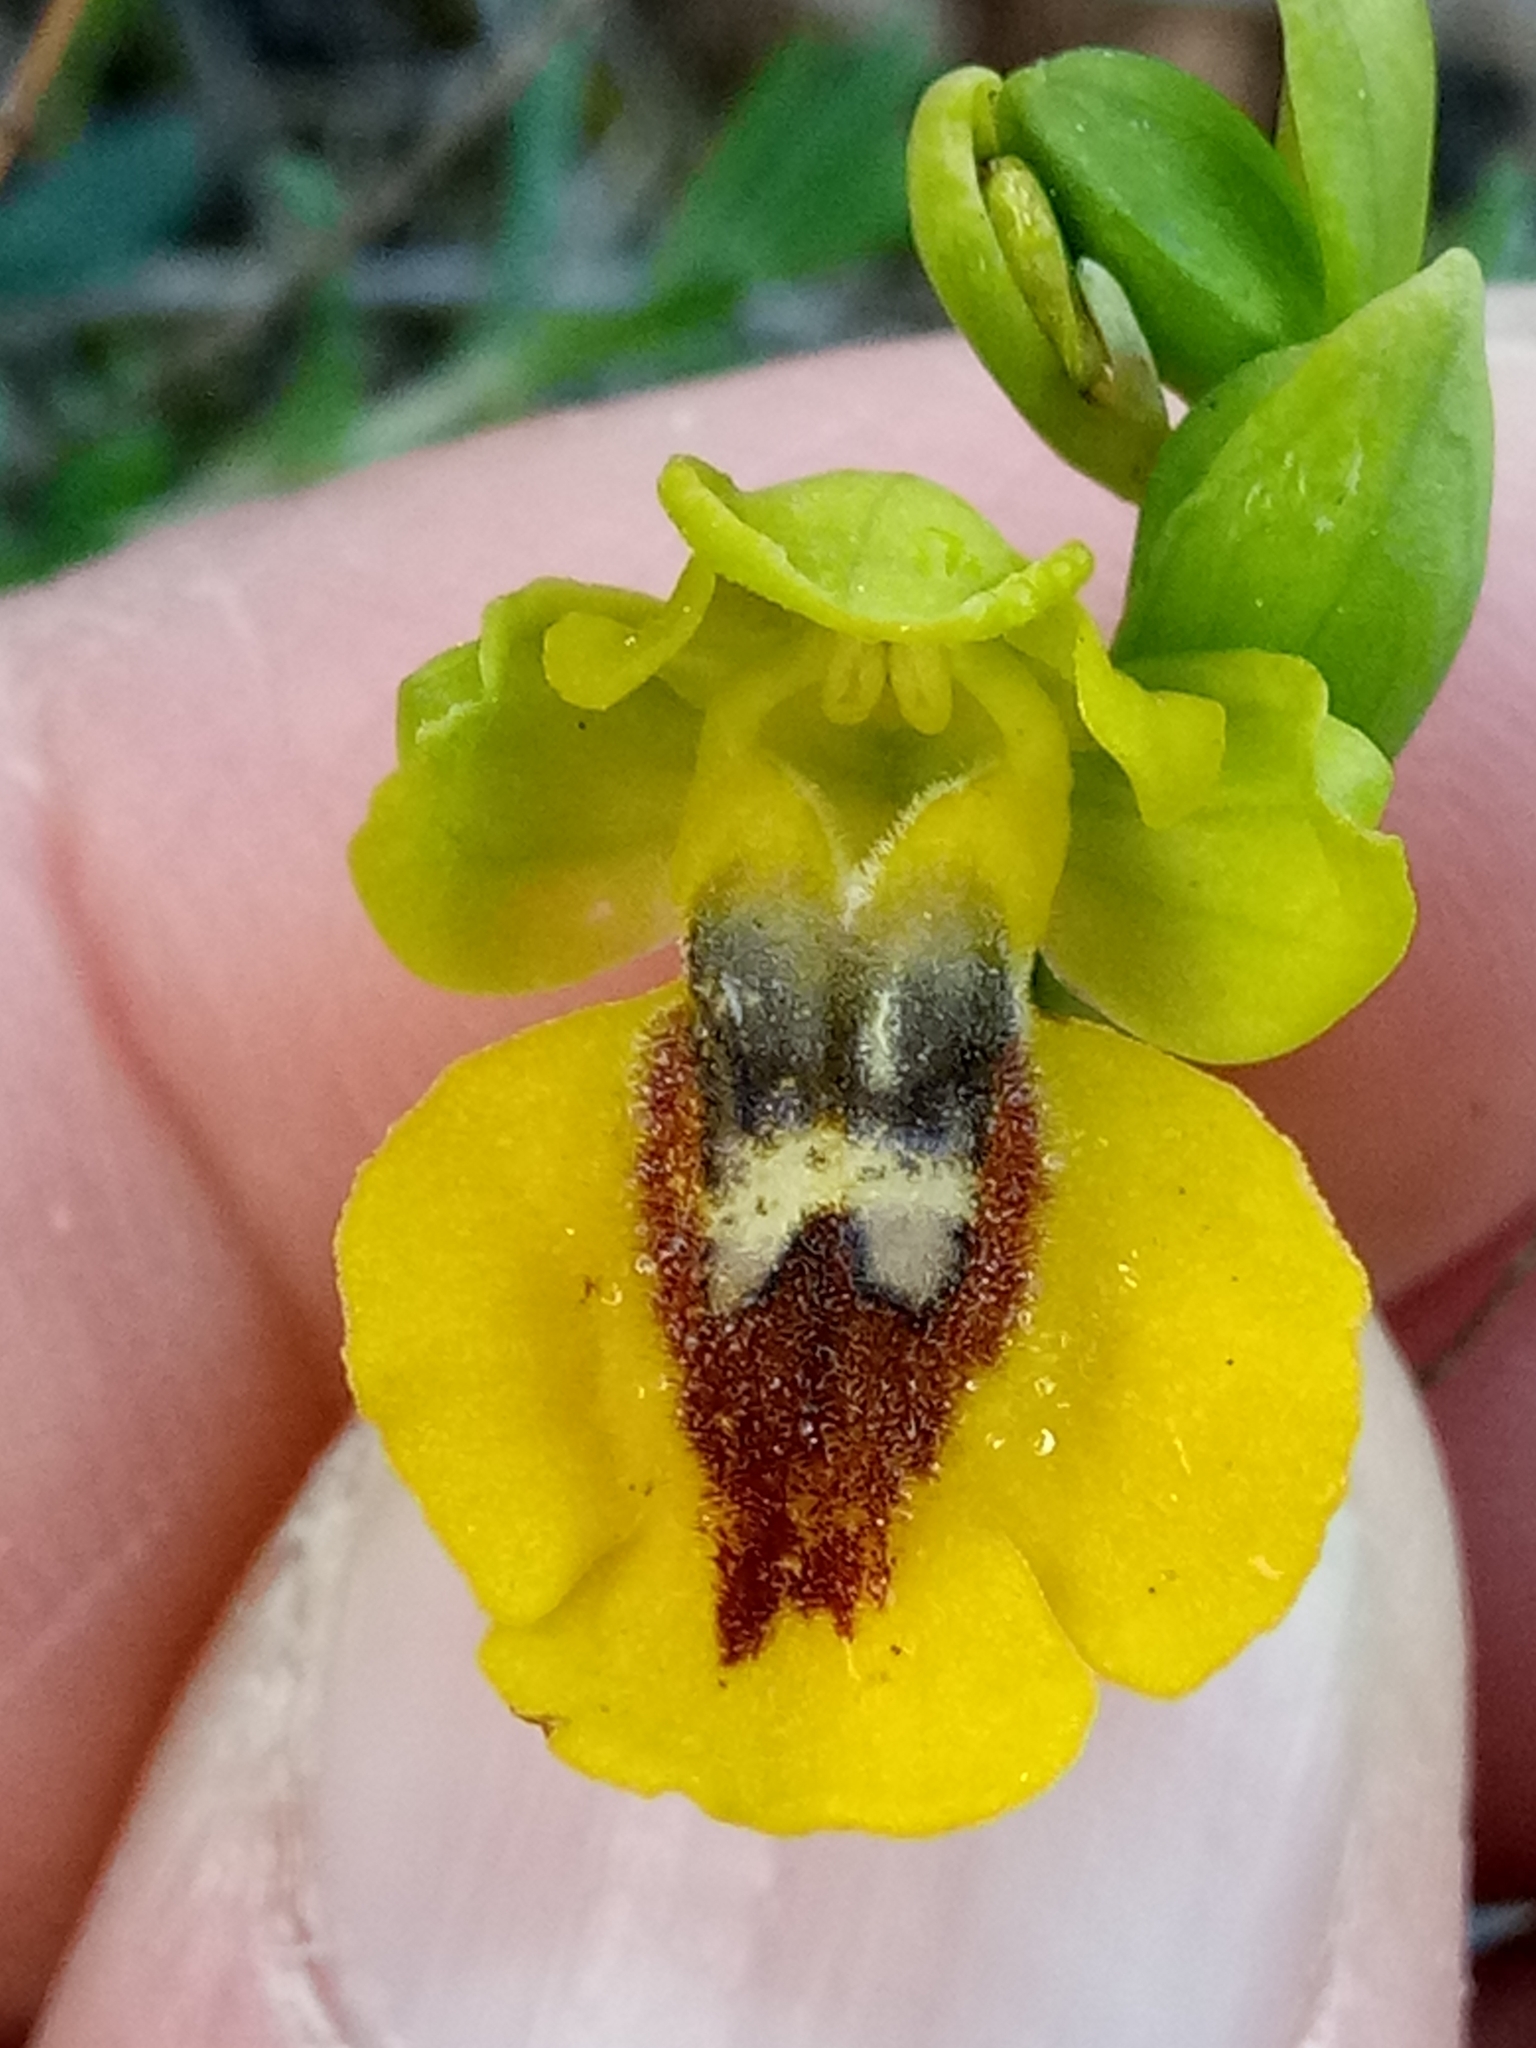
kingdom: Plantae
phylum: Tracheophyta
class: Liliopsida
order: Asparagales
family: Orchidaceae
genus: Ophrys
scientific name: Ophrys lutea
